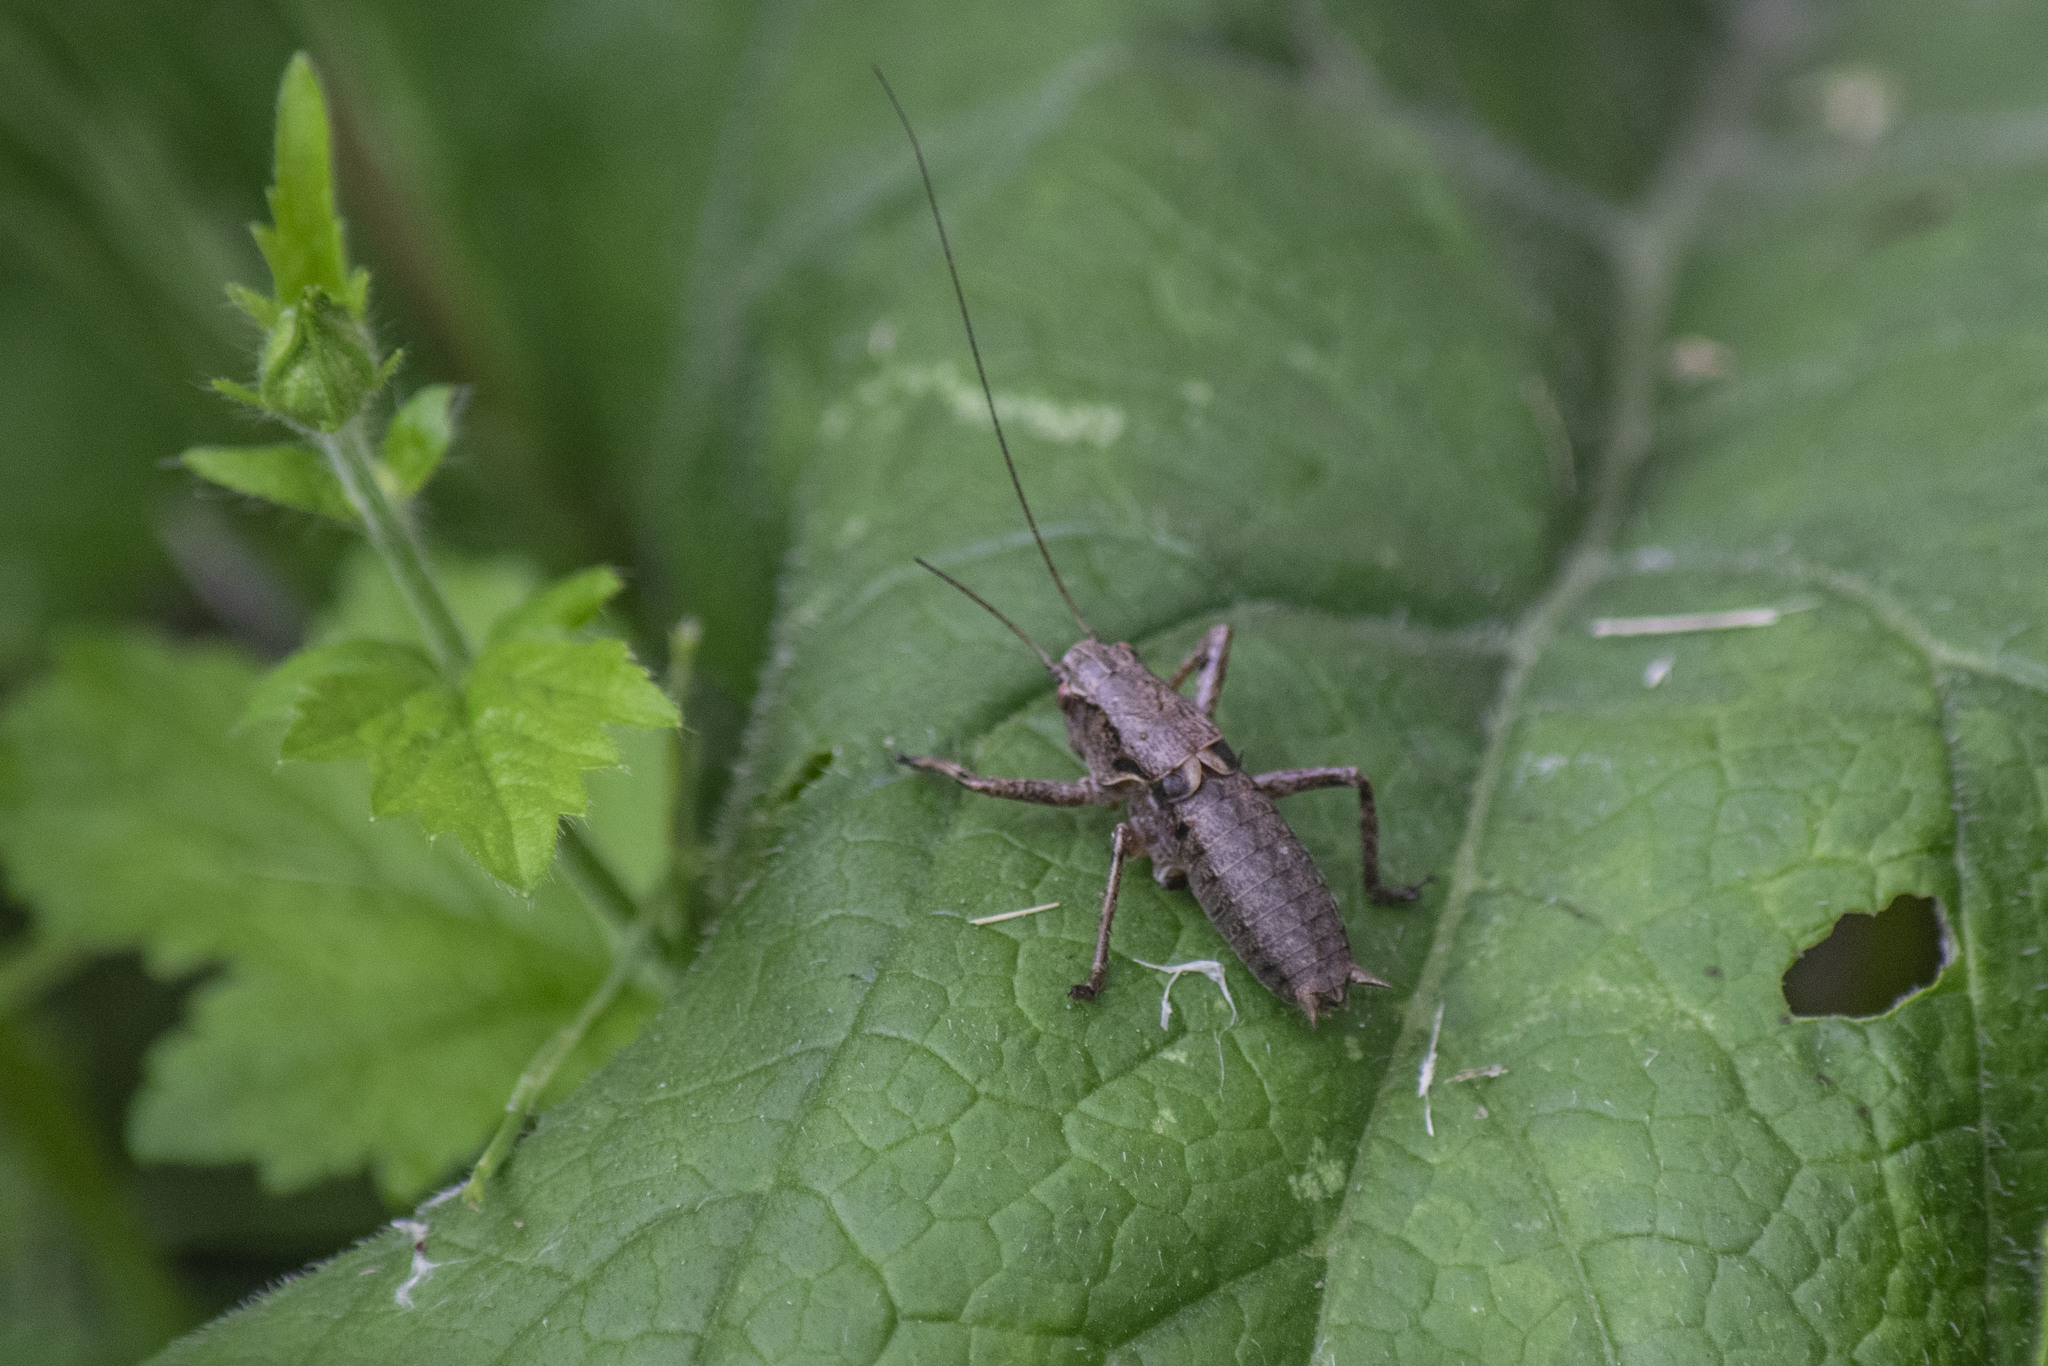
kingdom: Animalia
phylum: Arthropoda
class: Insecta
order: Orthoptera
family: Tettigoniidae
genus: Pholidoptera
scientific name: Pholidoptera griseoaptera
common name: Dark bush-cricket
